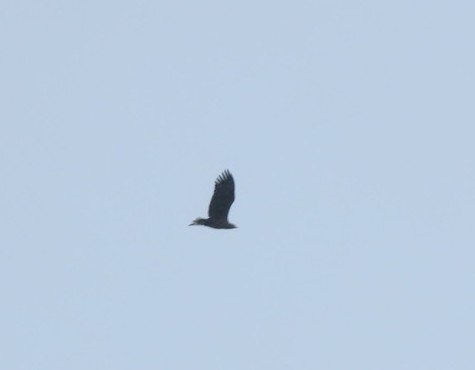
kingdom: Animalia
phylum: Chordata
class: Aves
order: Accipitriformes
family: Accipitridae
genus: Haliaeetus
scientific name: Haliaeetus albicilla
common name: White-tailed eagle
